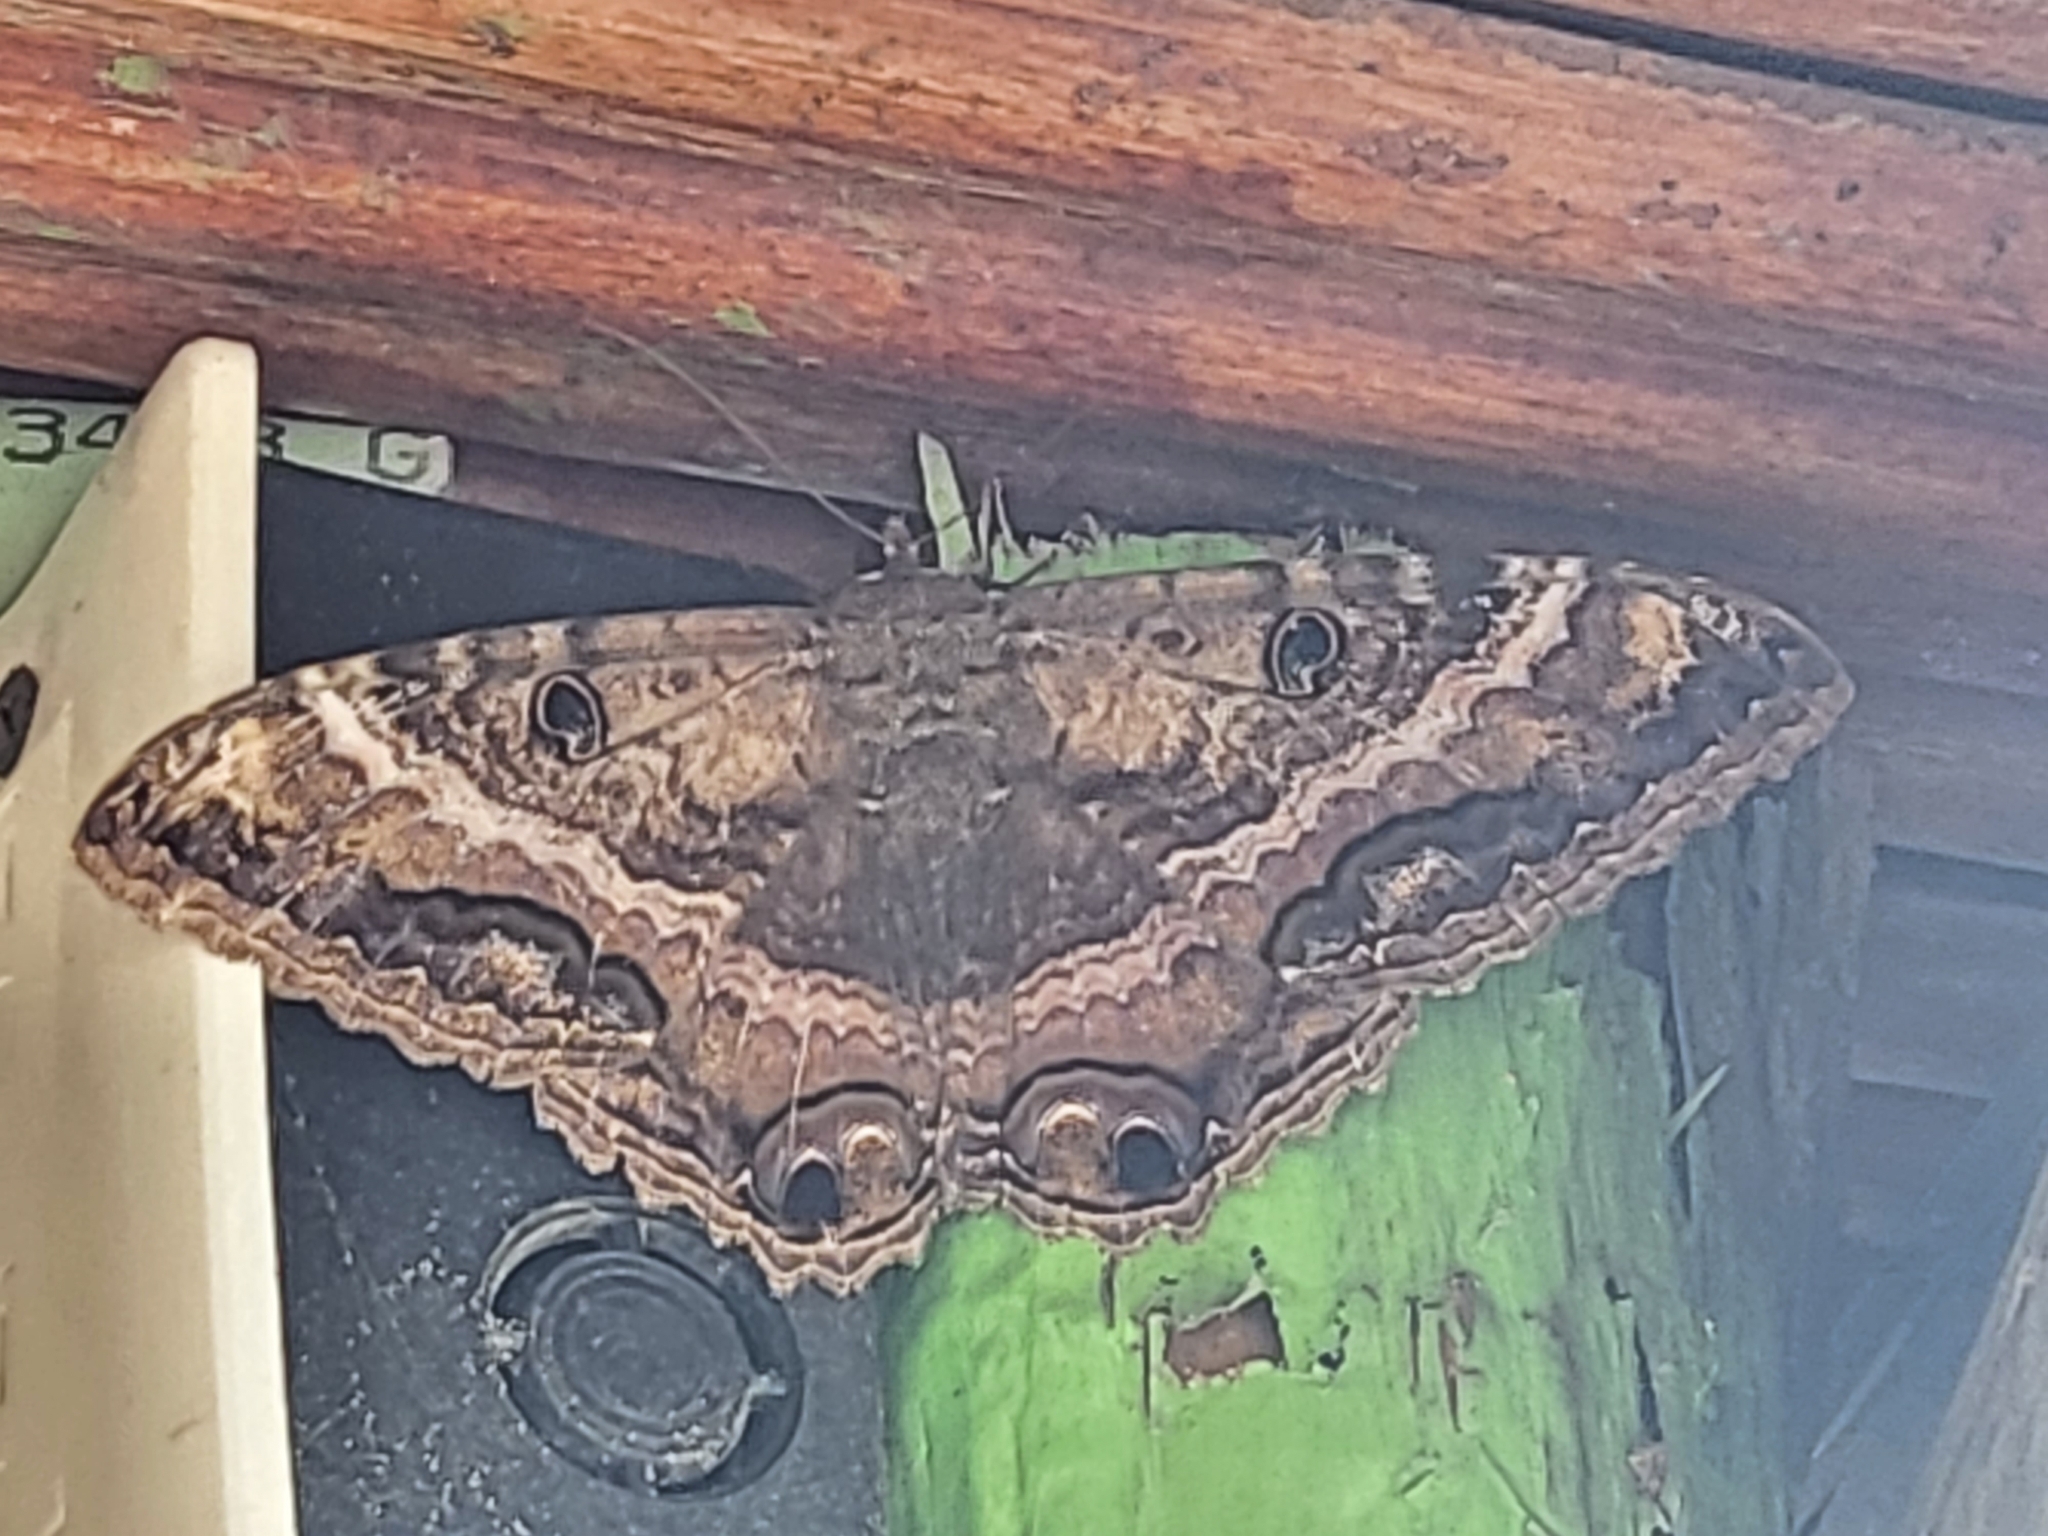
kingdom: Animalia
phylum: Arthropoda
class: Insecta
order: Lepidoptera
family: Erebidae
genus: Ascalapha
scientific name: Ascalapha odorata
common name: Black witch
